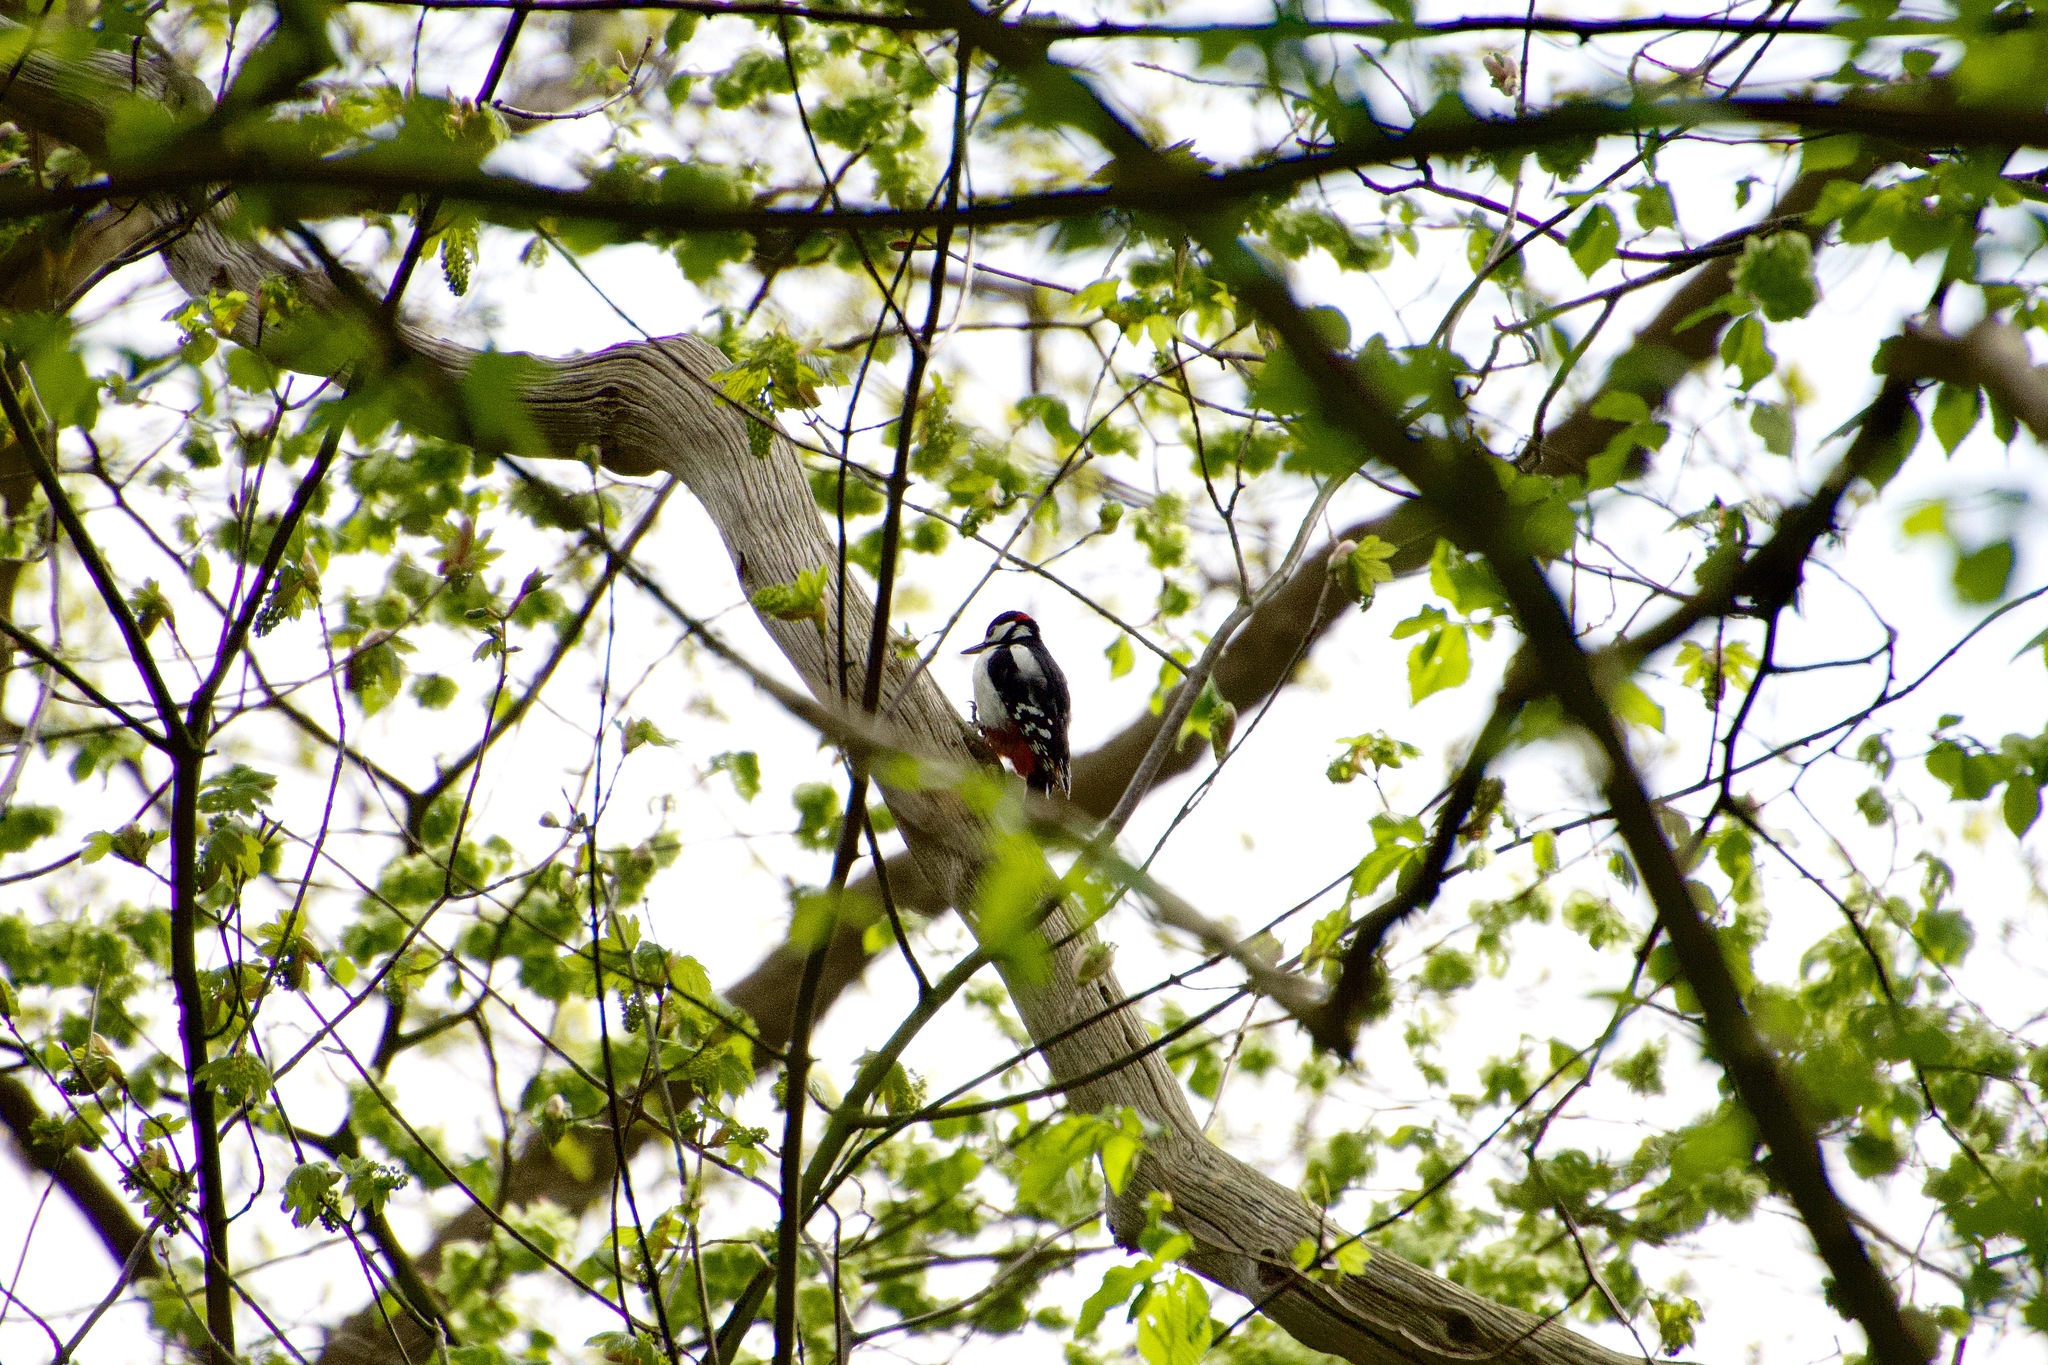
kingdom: Animalia
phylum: Chordata
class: Aves
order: Piciformes
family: Picidae
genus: Dendrocopos
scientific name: Dendrocopos major
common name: Great spotted woodpecker
